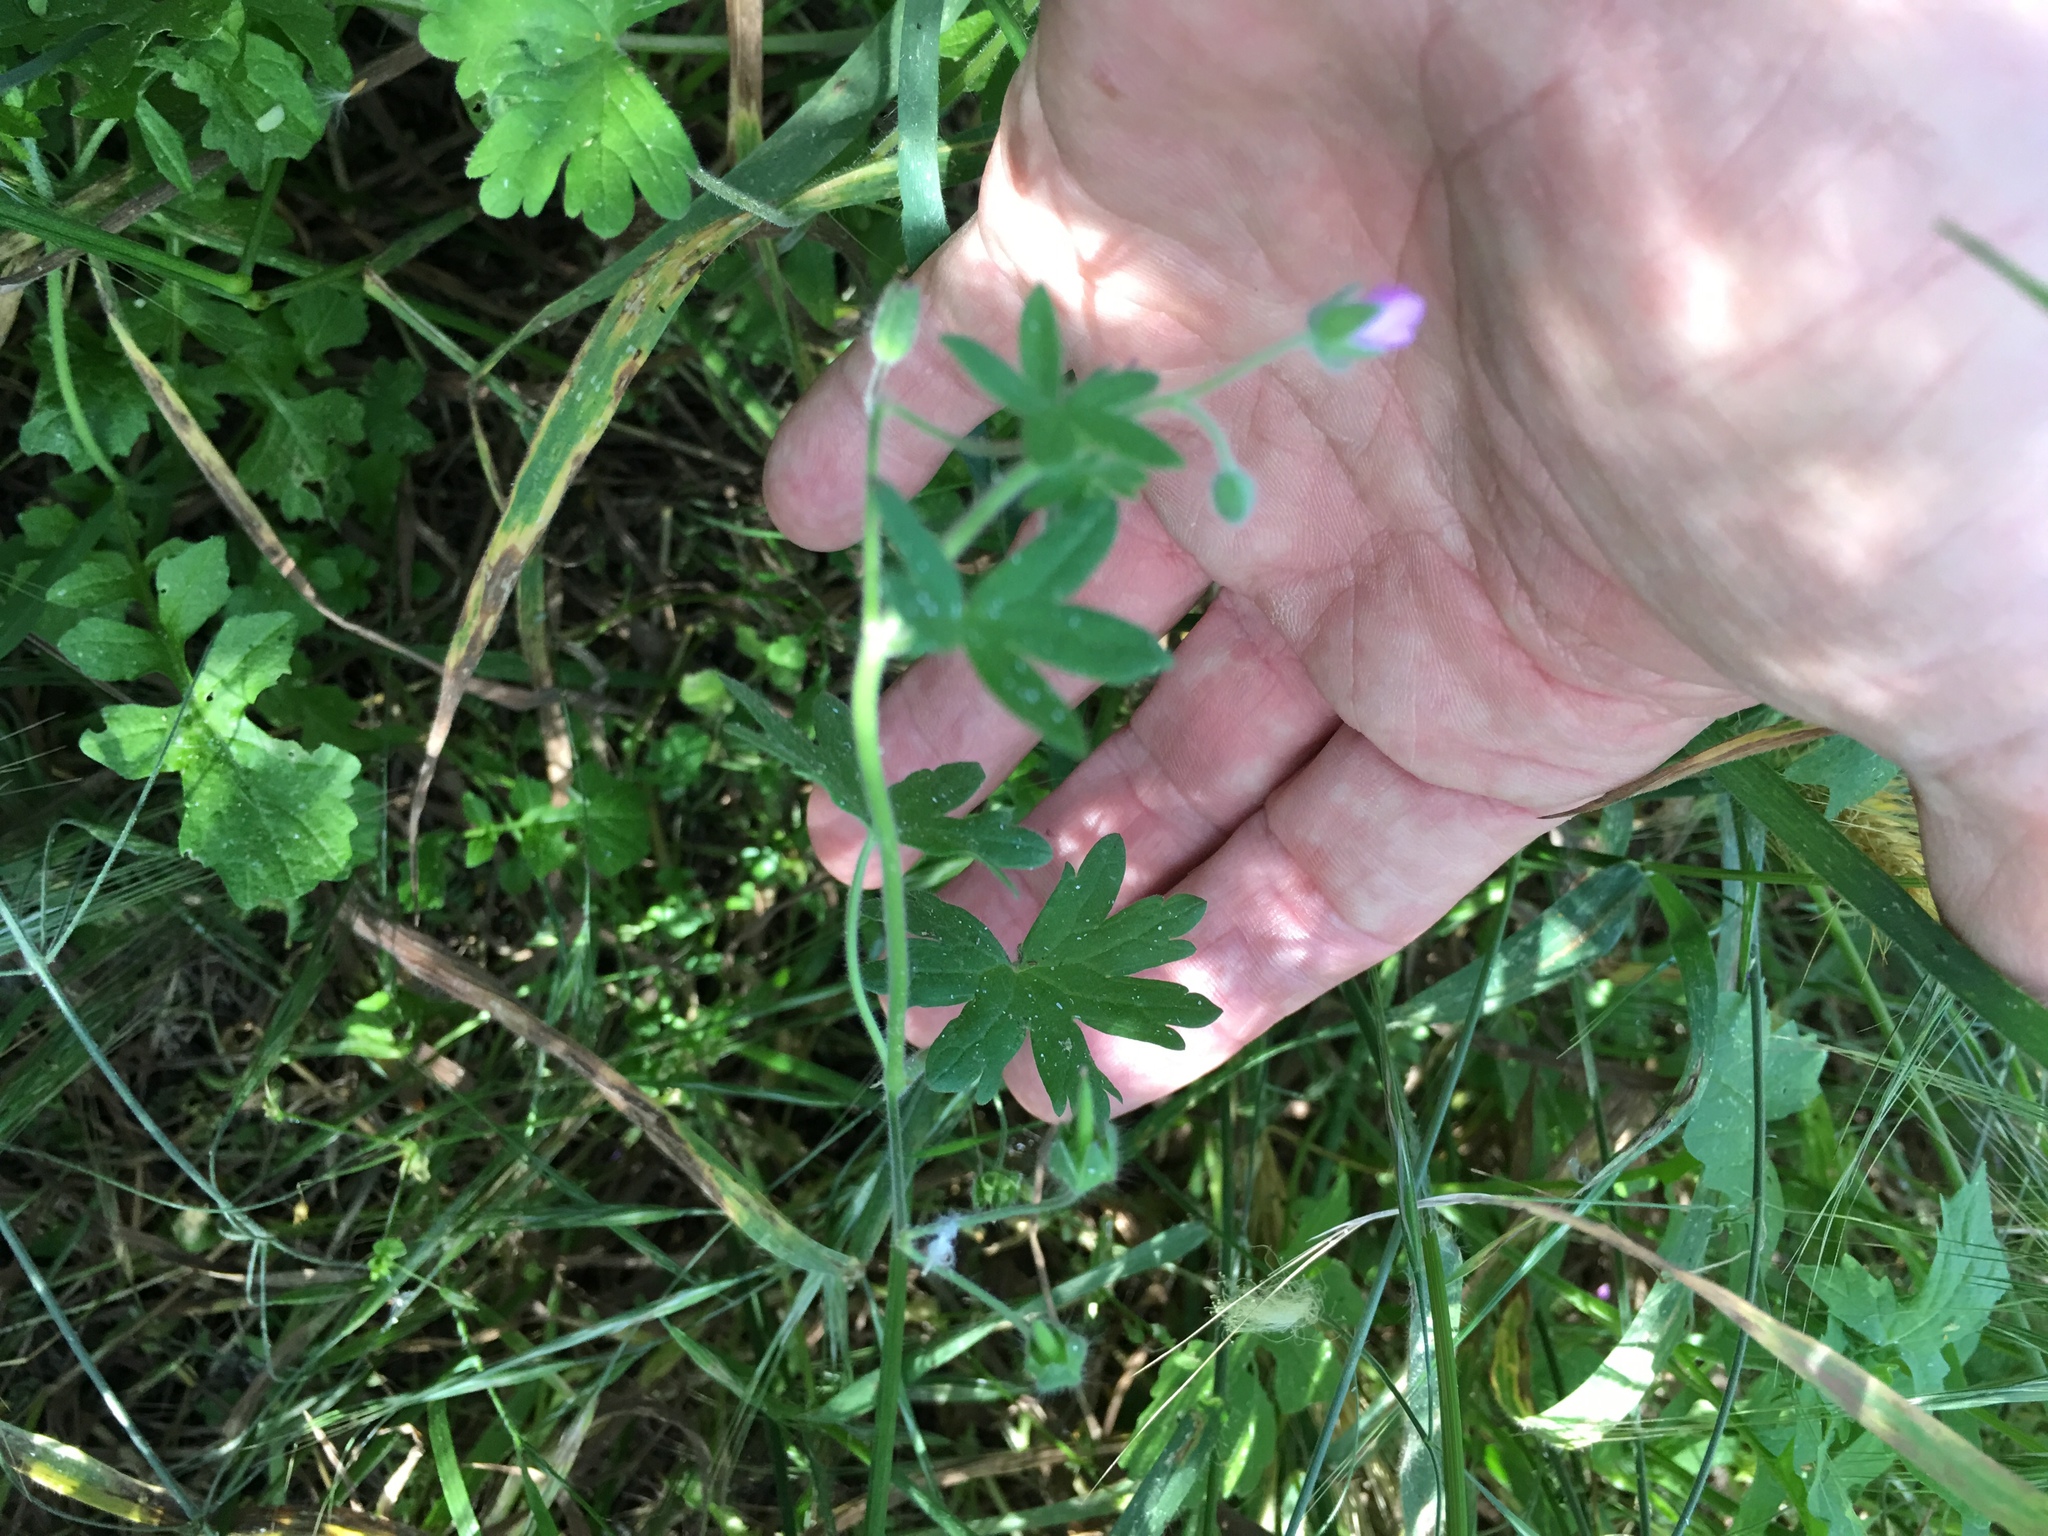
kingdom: Plantae
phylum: Tracheophyta
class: Magnoliopsida
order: Geraniales
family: Geraniaceae
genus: Geranium
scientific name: Geranium molle
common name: Dove's-foot crane's-bill
